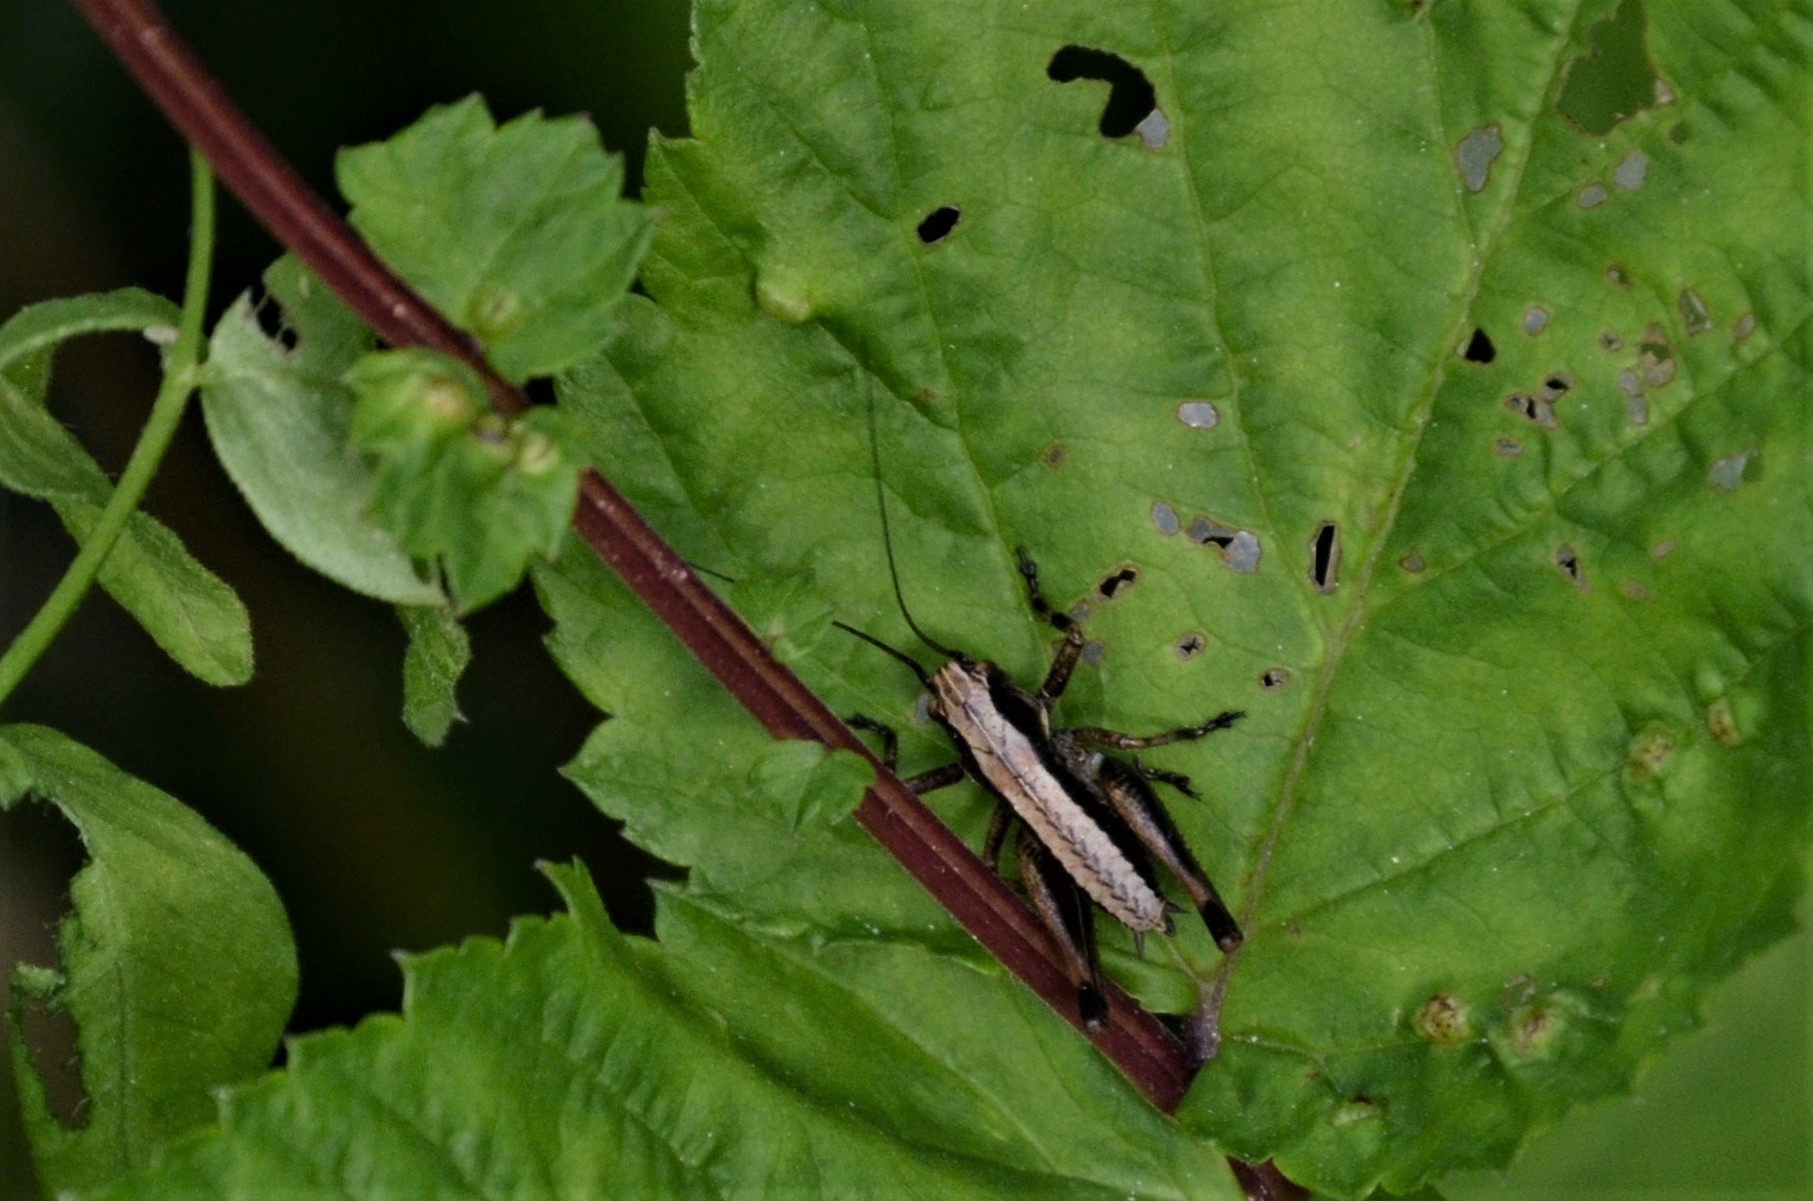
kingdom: Animalia
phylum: Arthropoda
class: Insecta
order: Orthoptera
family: Tettigoniidae
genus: Pholidoptera
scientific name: Pholidoptera griseoaptera
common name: Dark bush-cricket
